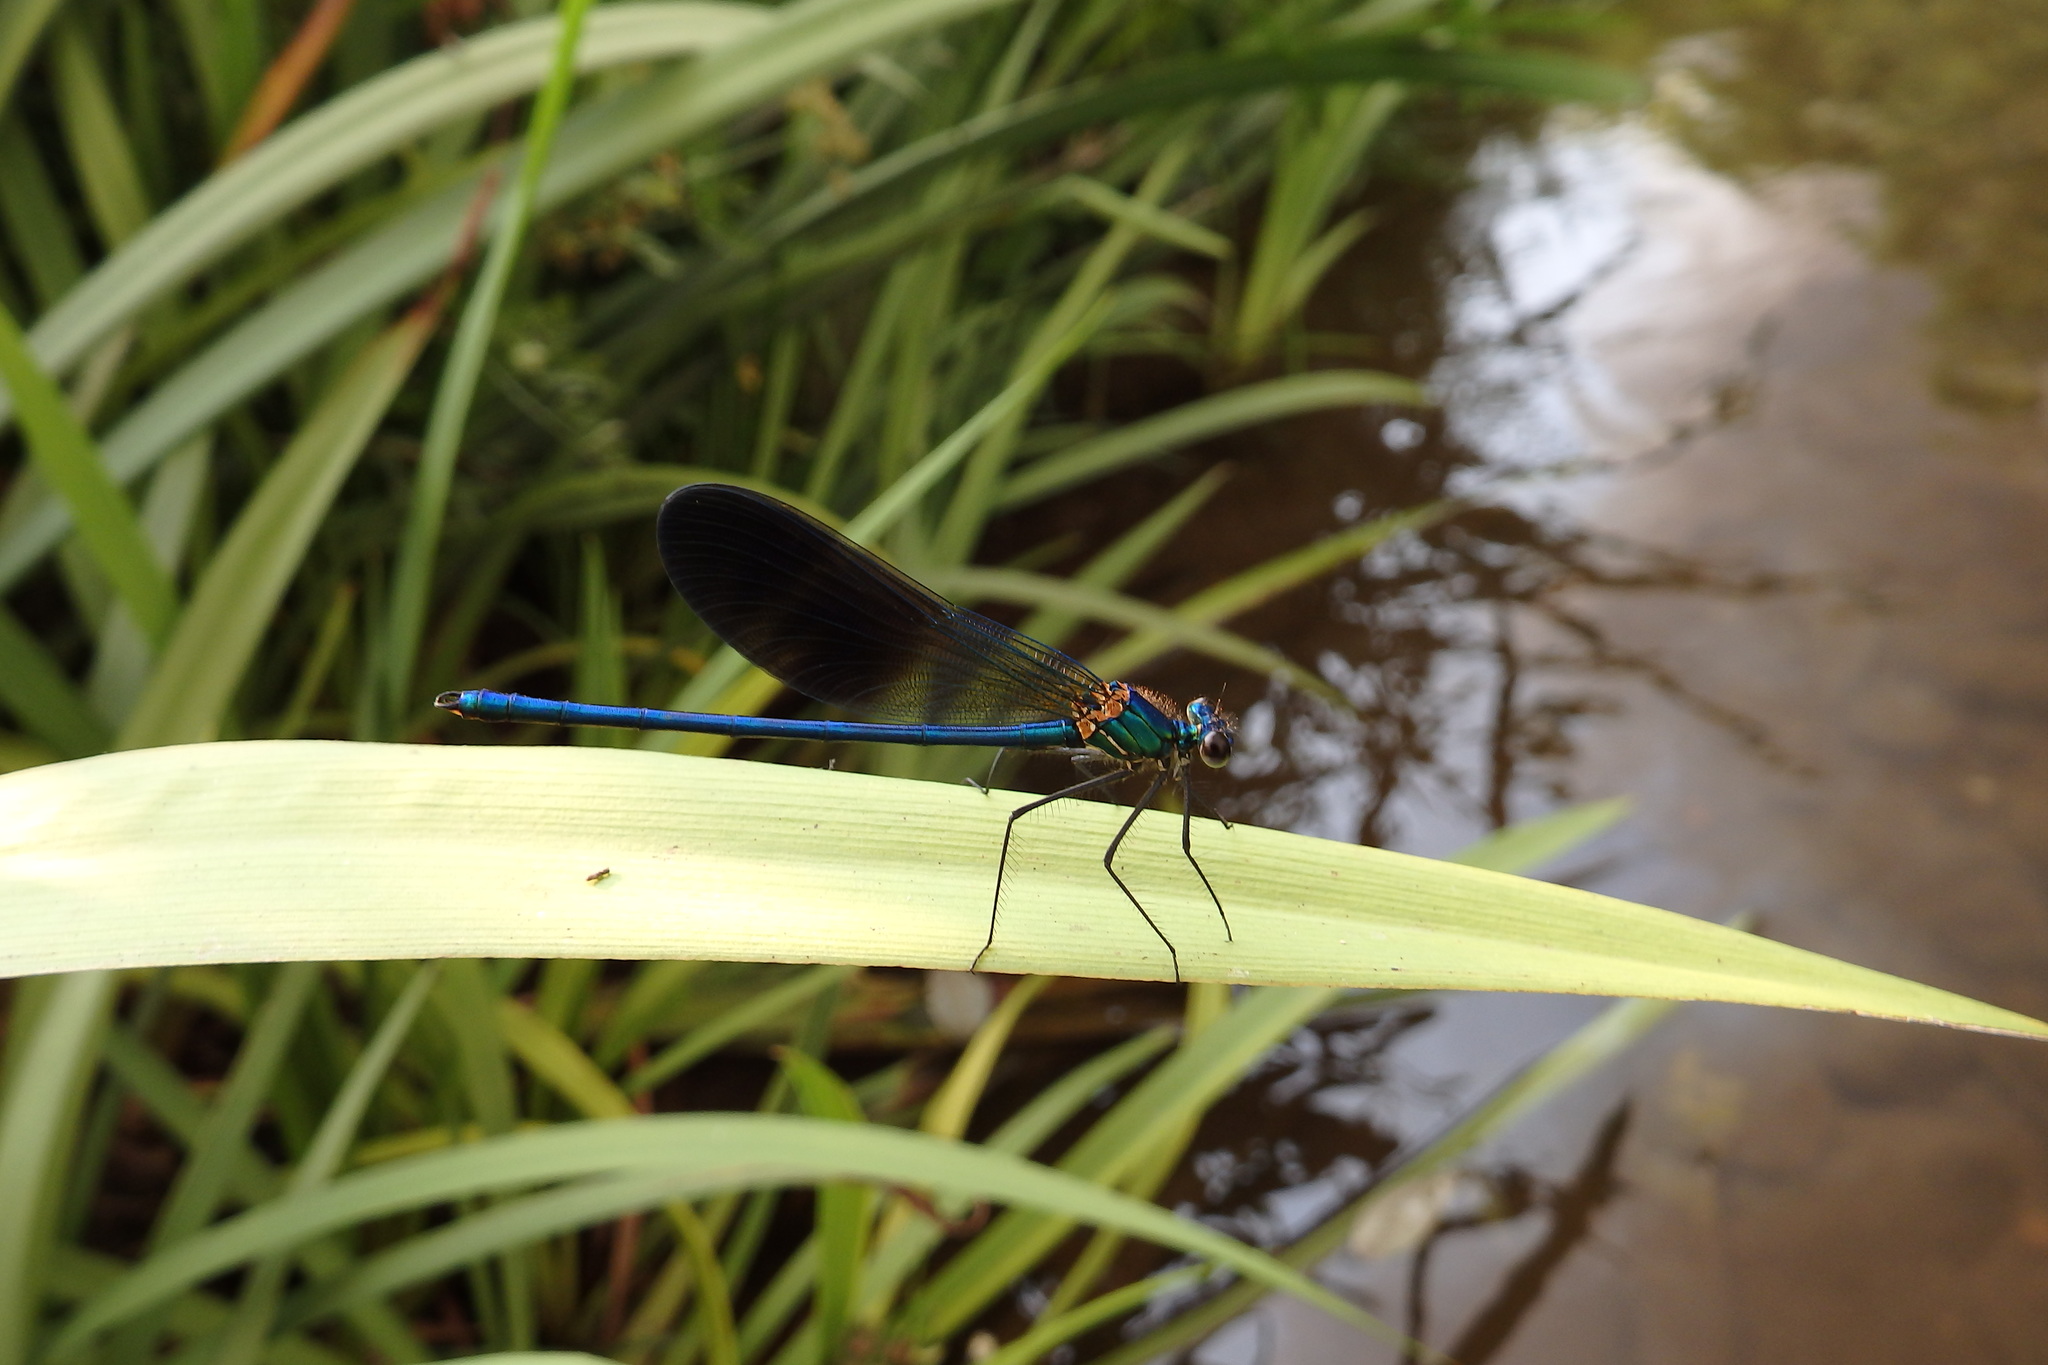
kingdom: Animalia
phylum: Arthropoda
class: Insecta
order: Odonata
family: Calopterygidae
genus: Calopteryx
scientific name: Calopteryx xanthostoma
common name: Western demoiselle
